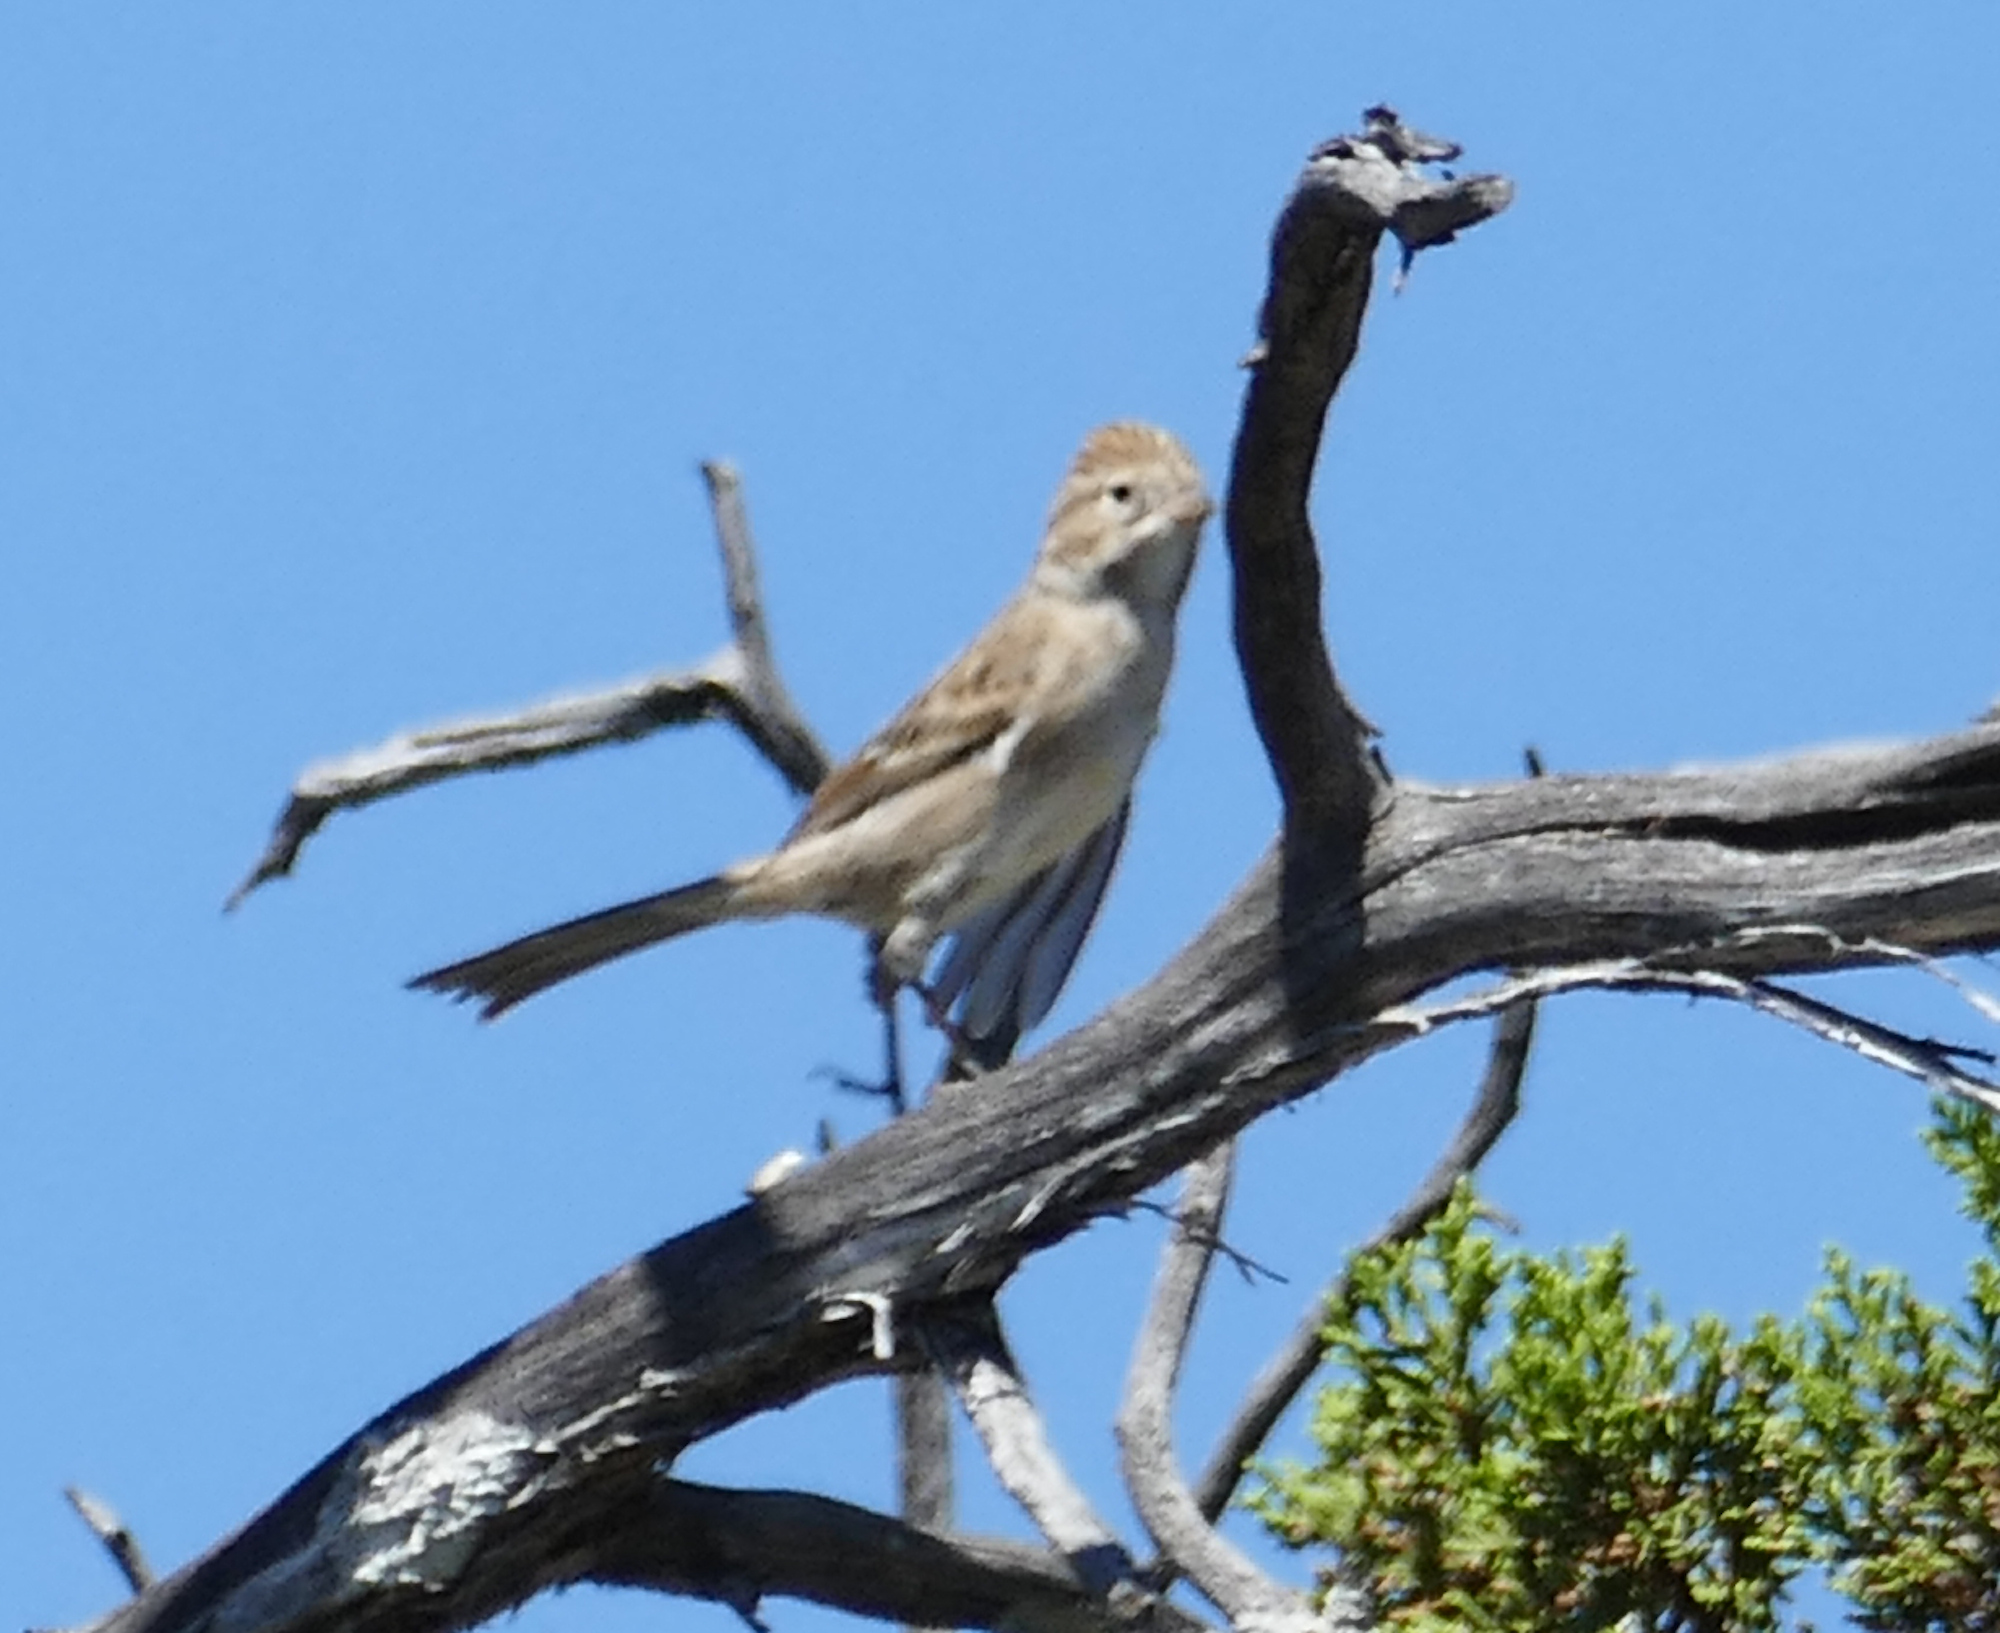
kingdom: Animalia
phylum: Chordata
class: Aves
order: Passeriformes
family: Passerellidae
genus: Spizella
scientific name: Spizella breweri
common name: Brewer's sparrow
